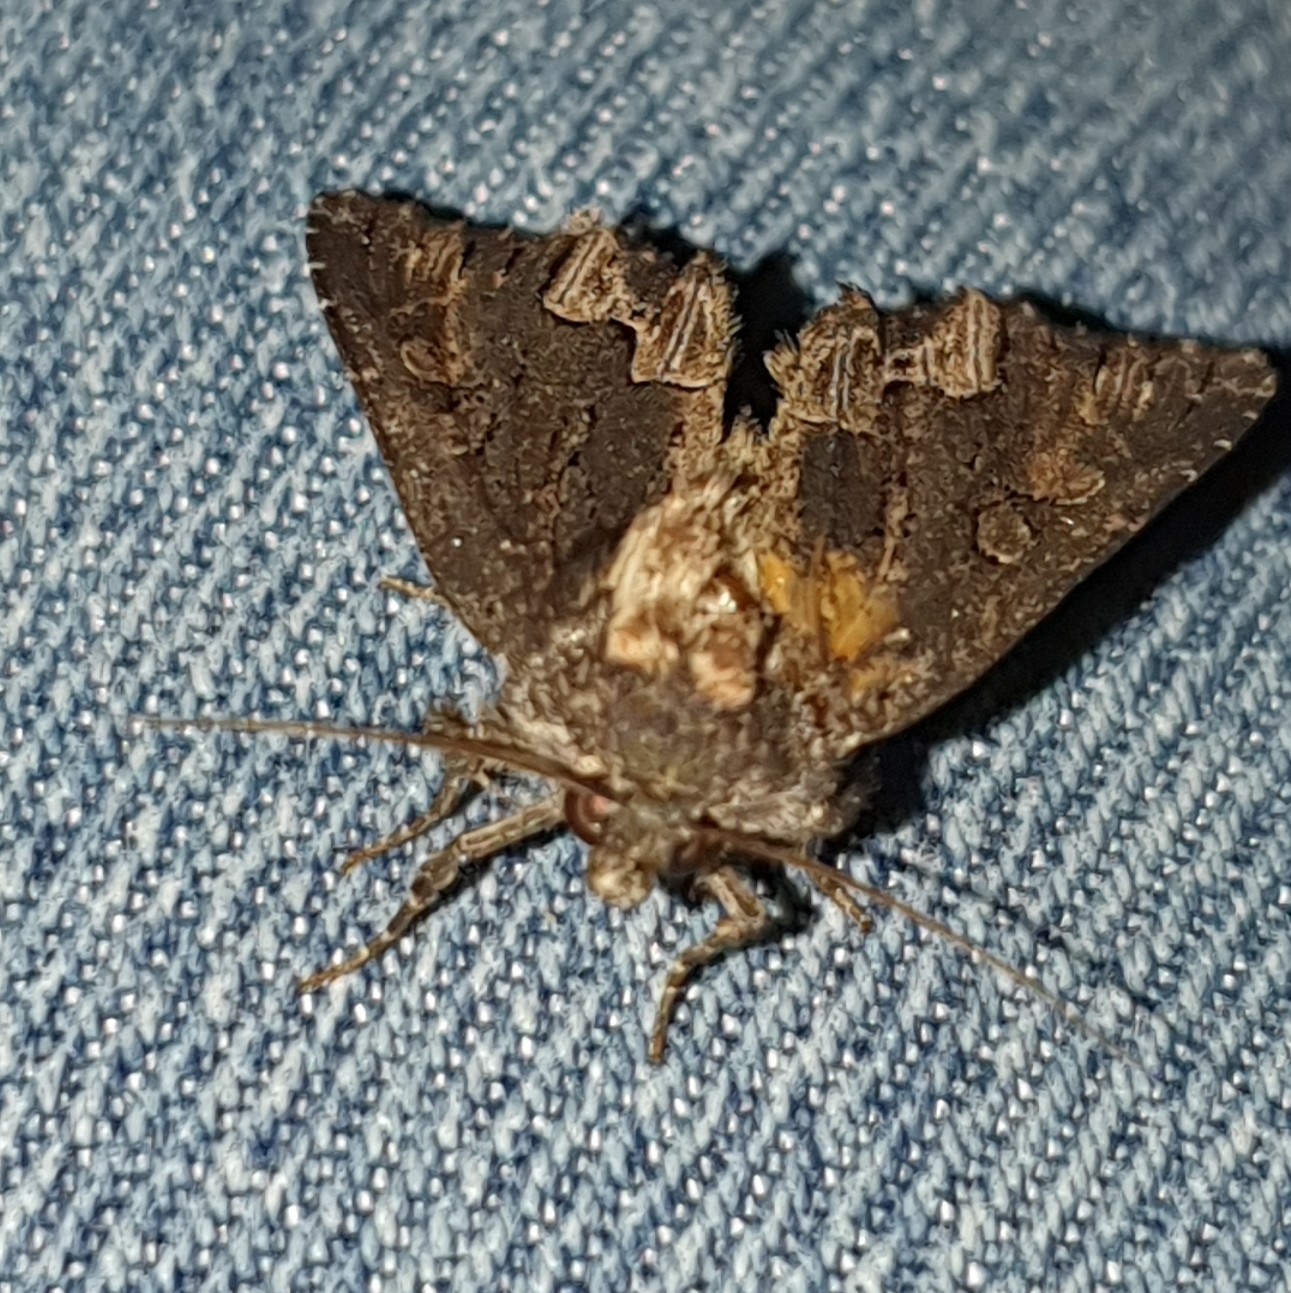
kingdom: Animalia
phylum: Arthropoda
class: Insecta
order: Lepidoptera
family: Noctuidae
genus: Dypterygia
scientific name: Dypterygia scabriuscula
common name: Bird's wing
